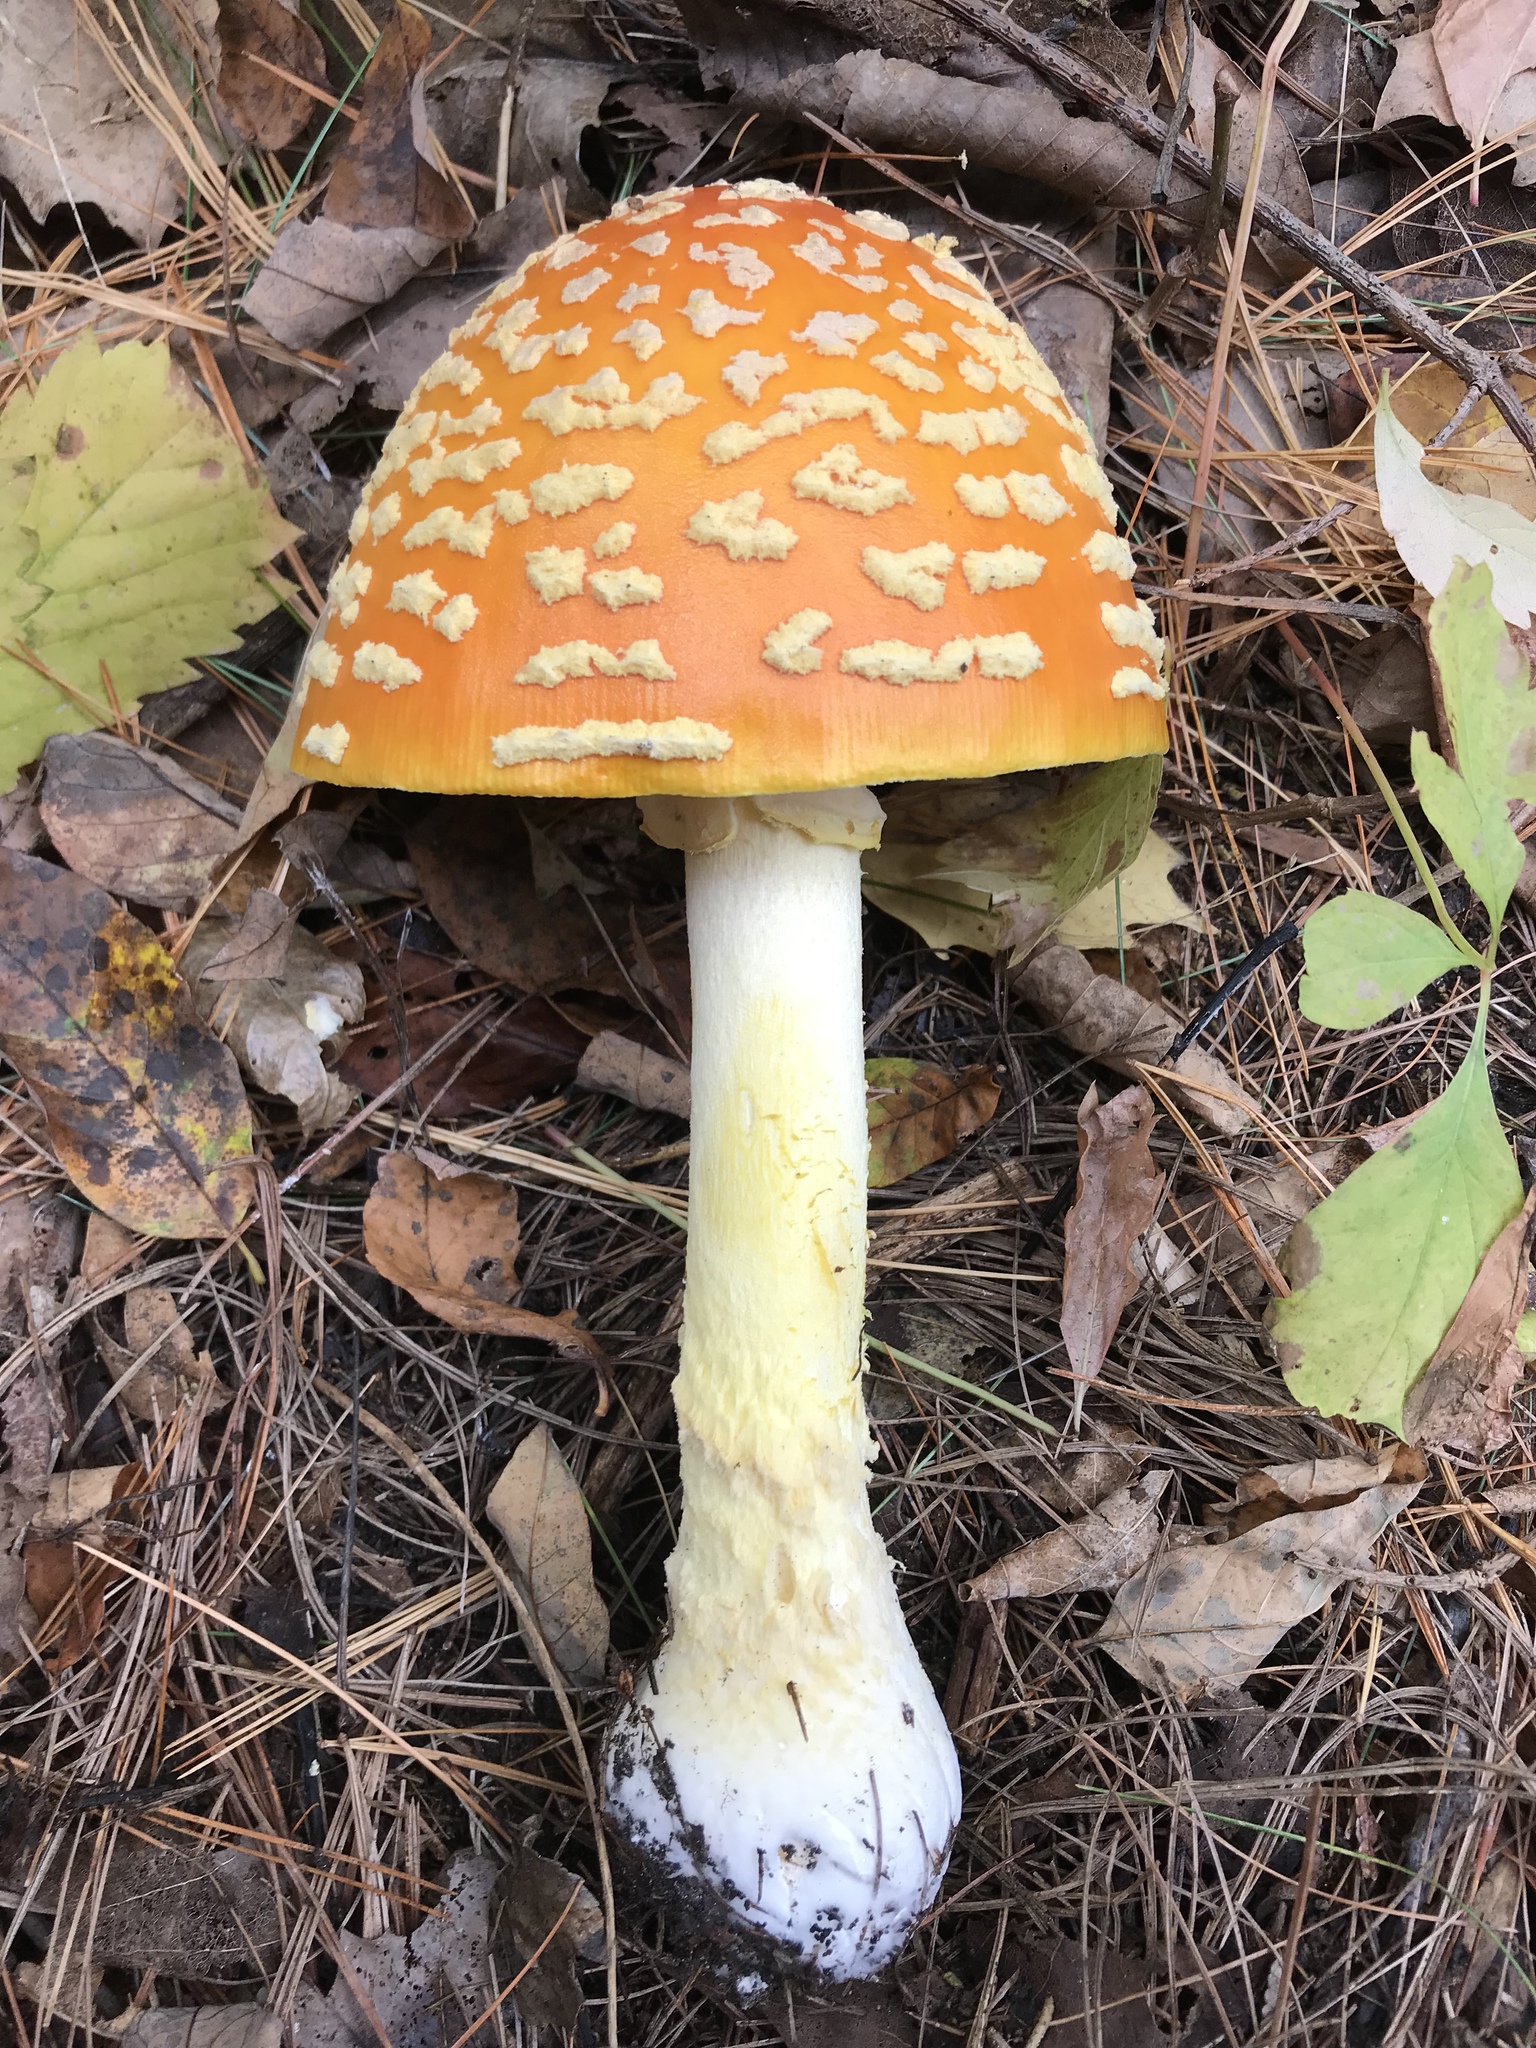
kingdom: Fungi
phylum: Basidiomycota
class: Agaricomycetes
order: Agaricales
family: Amanitaceae
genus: Amanita
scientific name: Amanita muscaria
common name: Fly agaric
